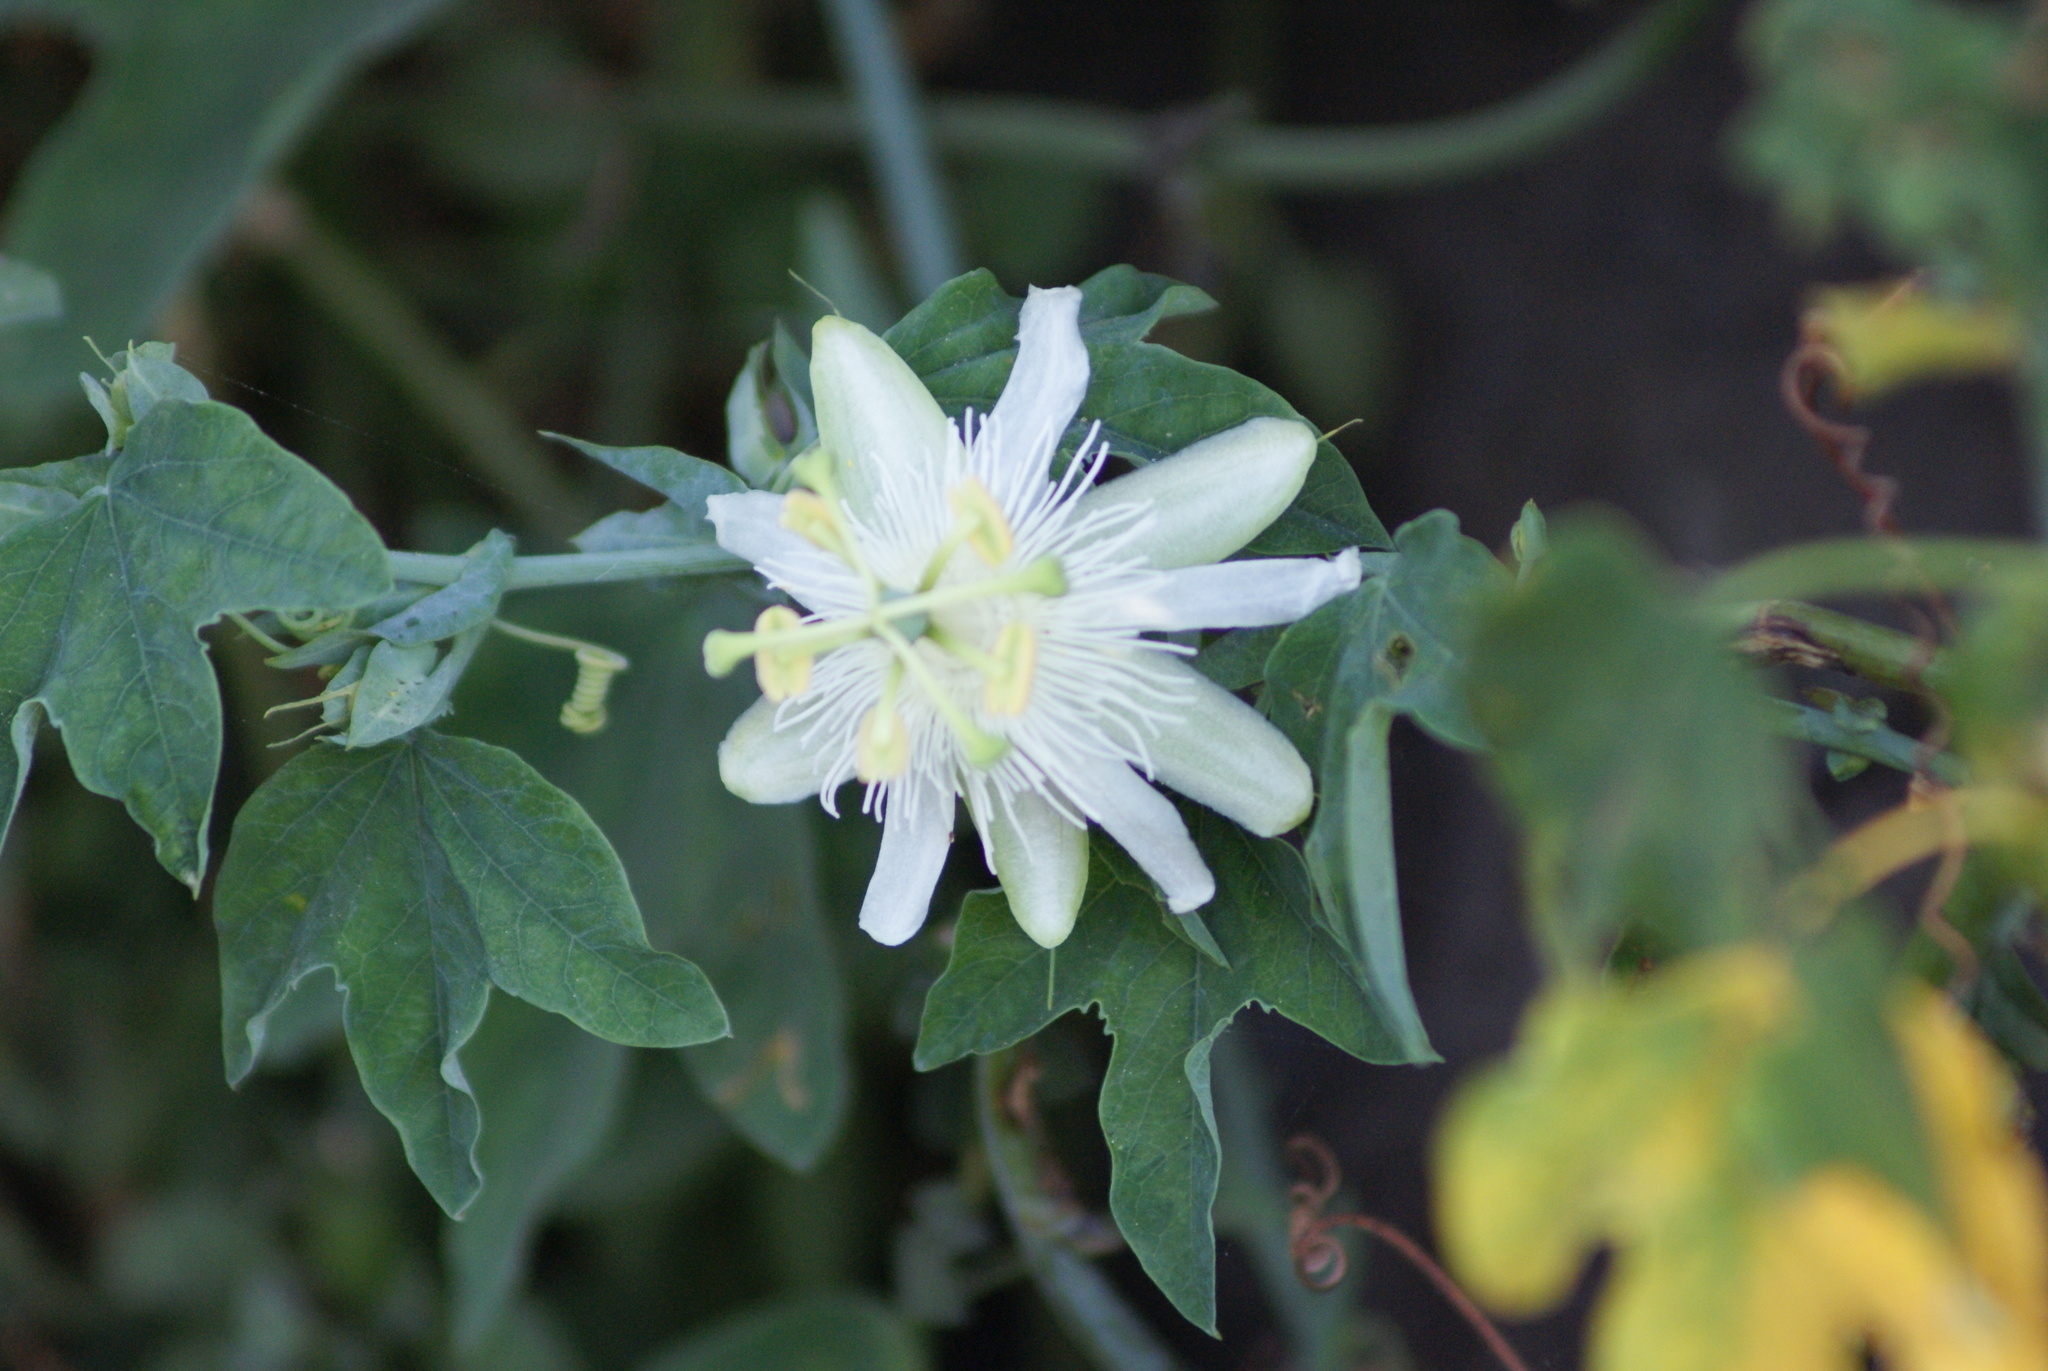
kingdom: Plantae
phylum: Tracheophyta
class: Magnoliopsida
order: Malpighiales
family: Passifloraceae
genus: Passiflora
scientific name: Passiflora subpeltata
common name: White passionflower
